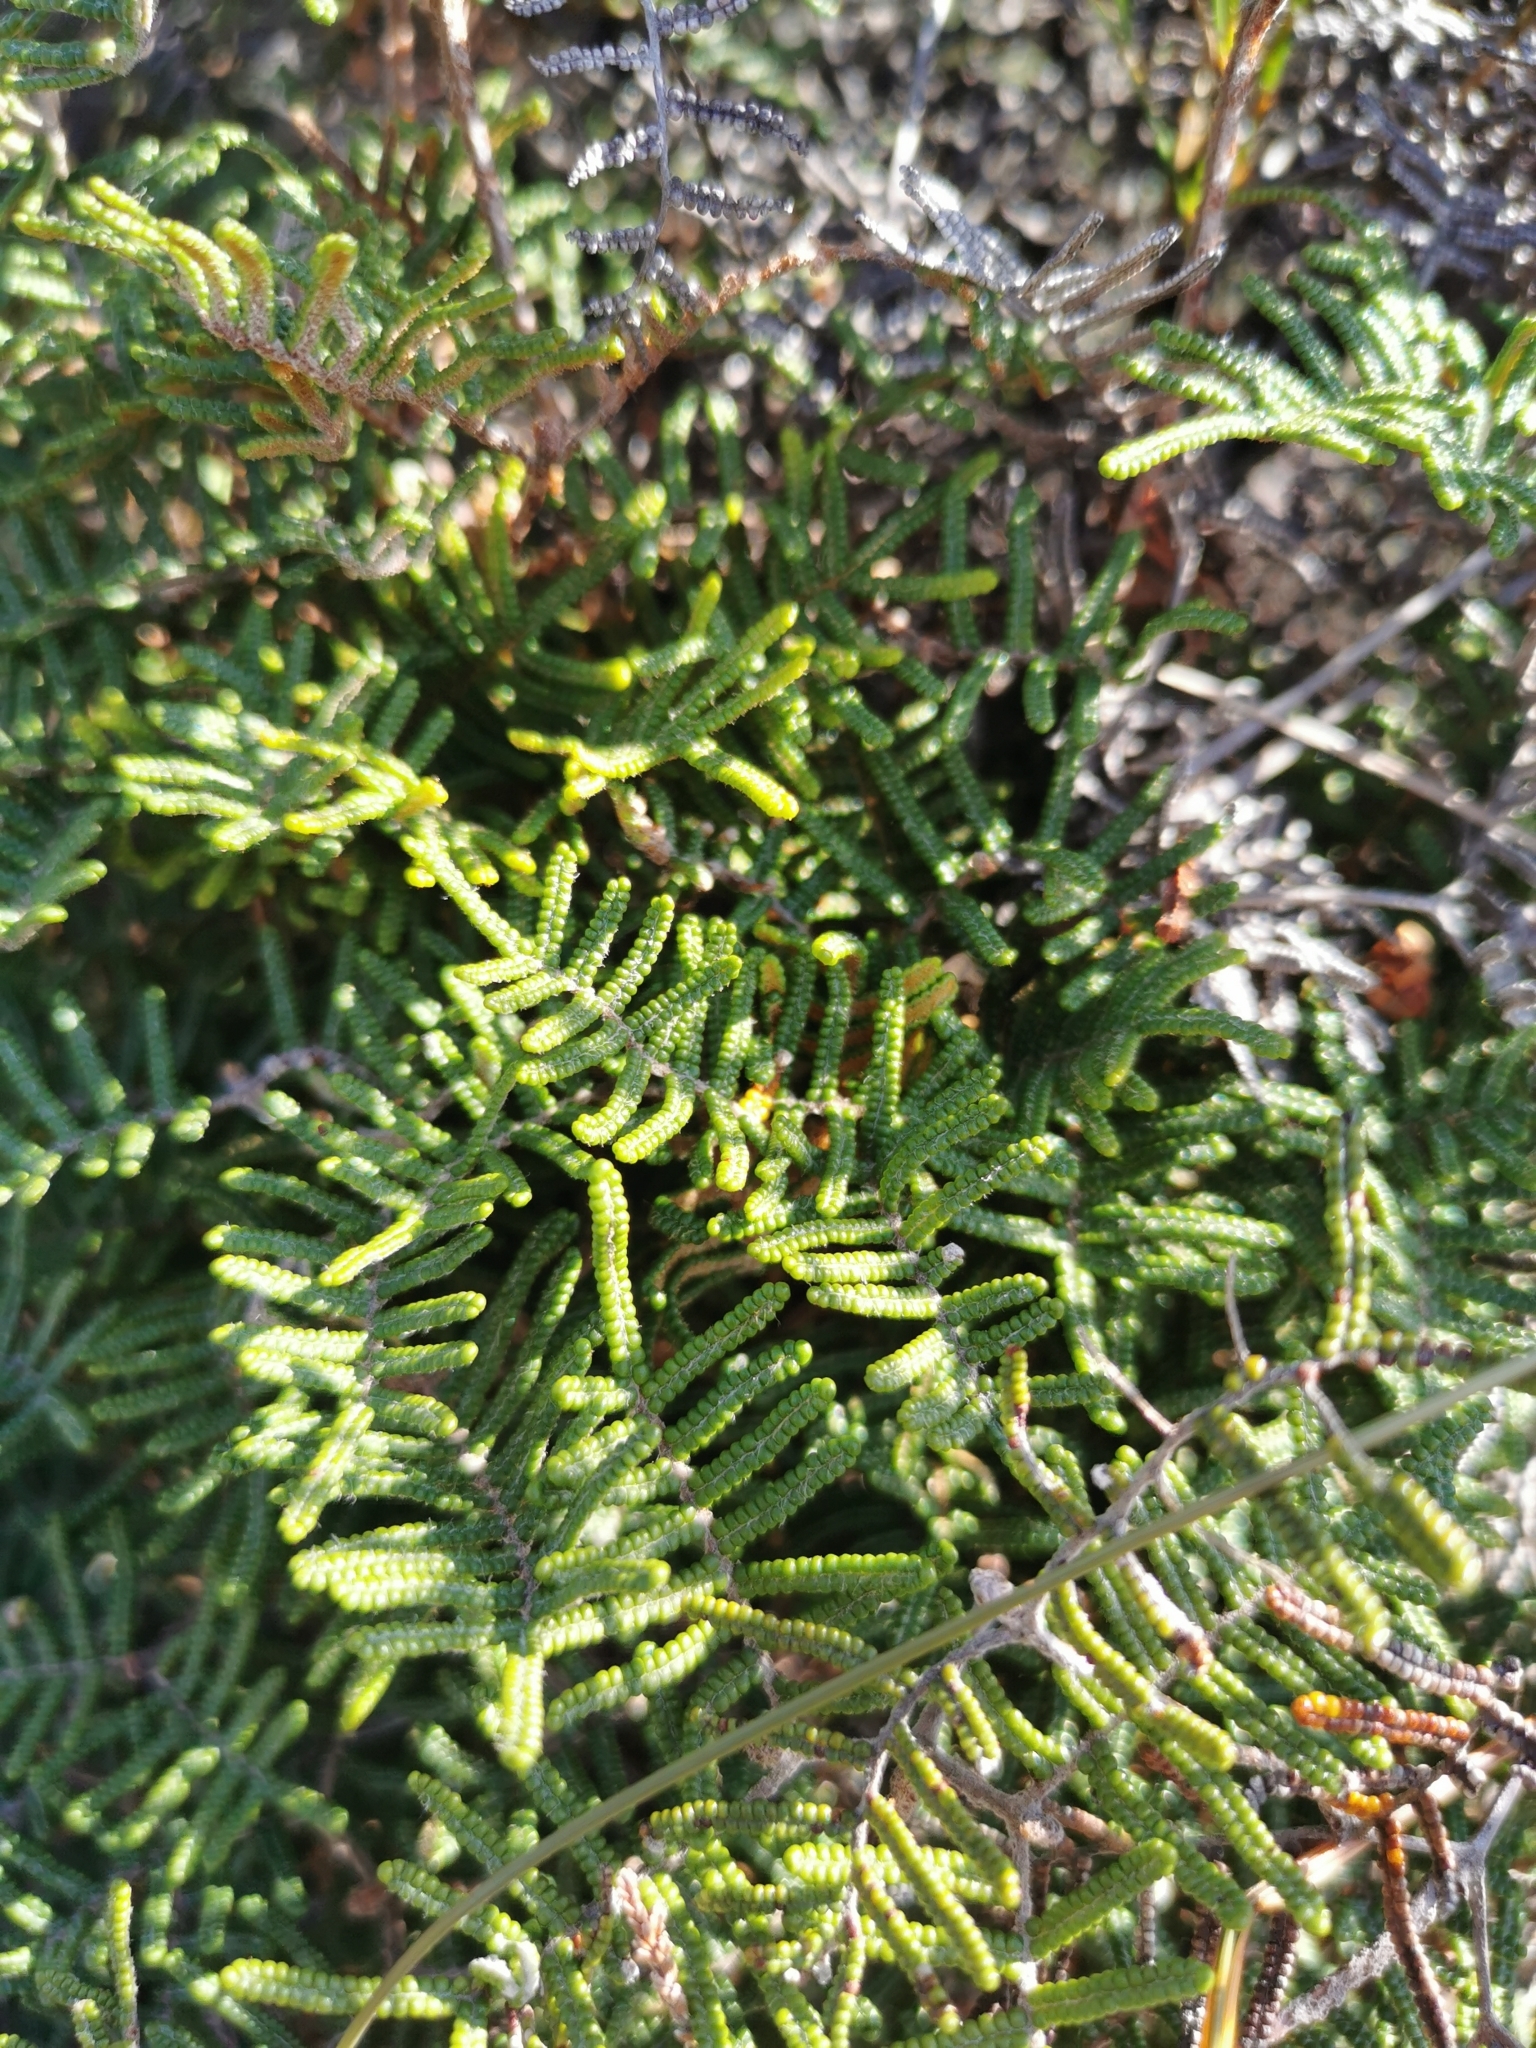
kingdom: Plantae
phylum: Tracheophyta
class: Polypodiopsida
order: Gleicheniales
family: Gleicheniaceae
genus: Gleichenia
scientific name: Gleichenia alpina
